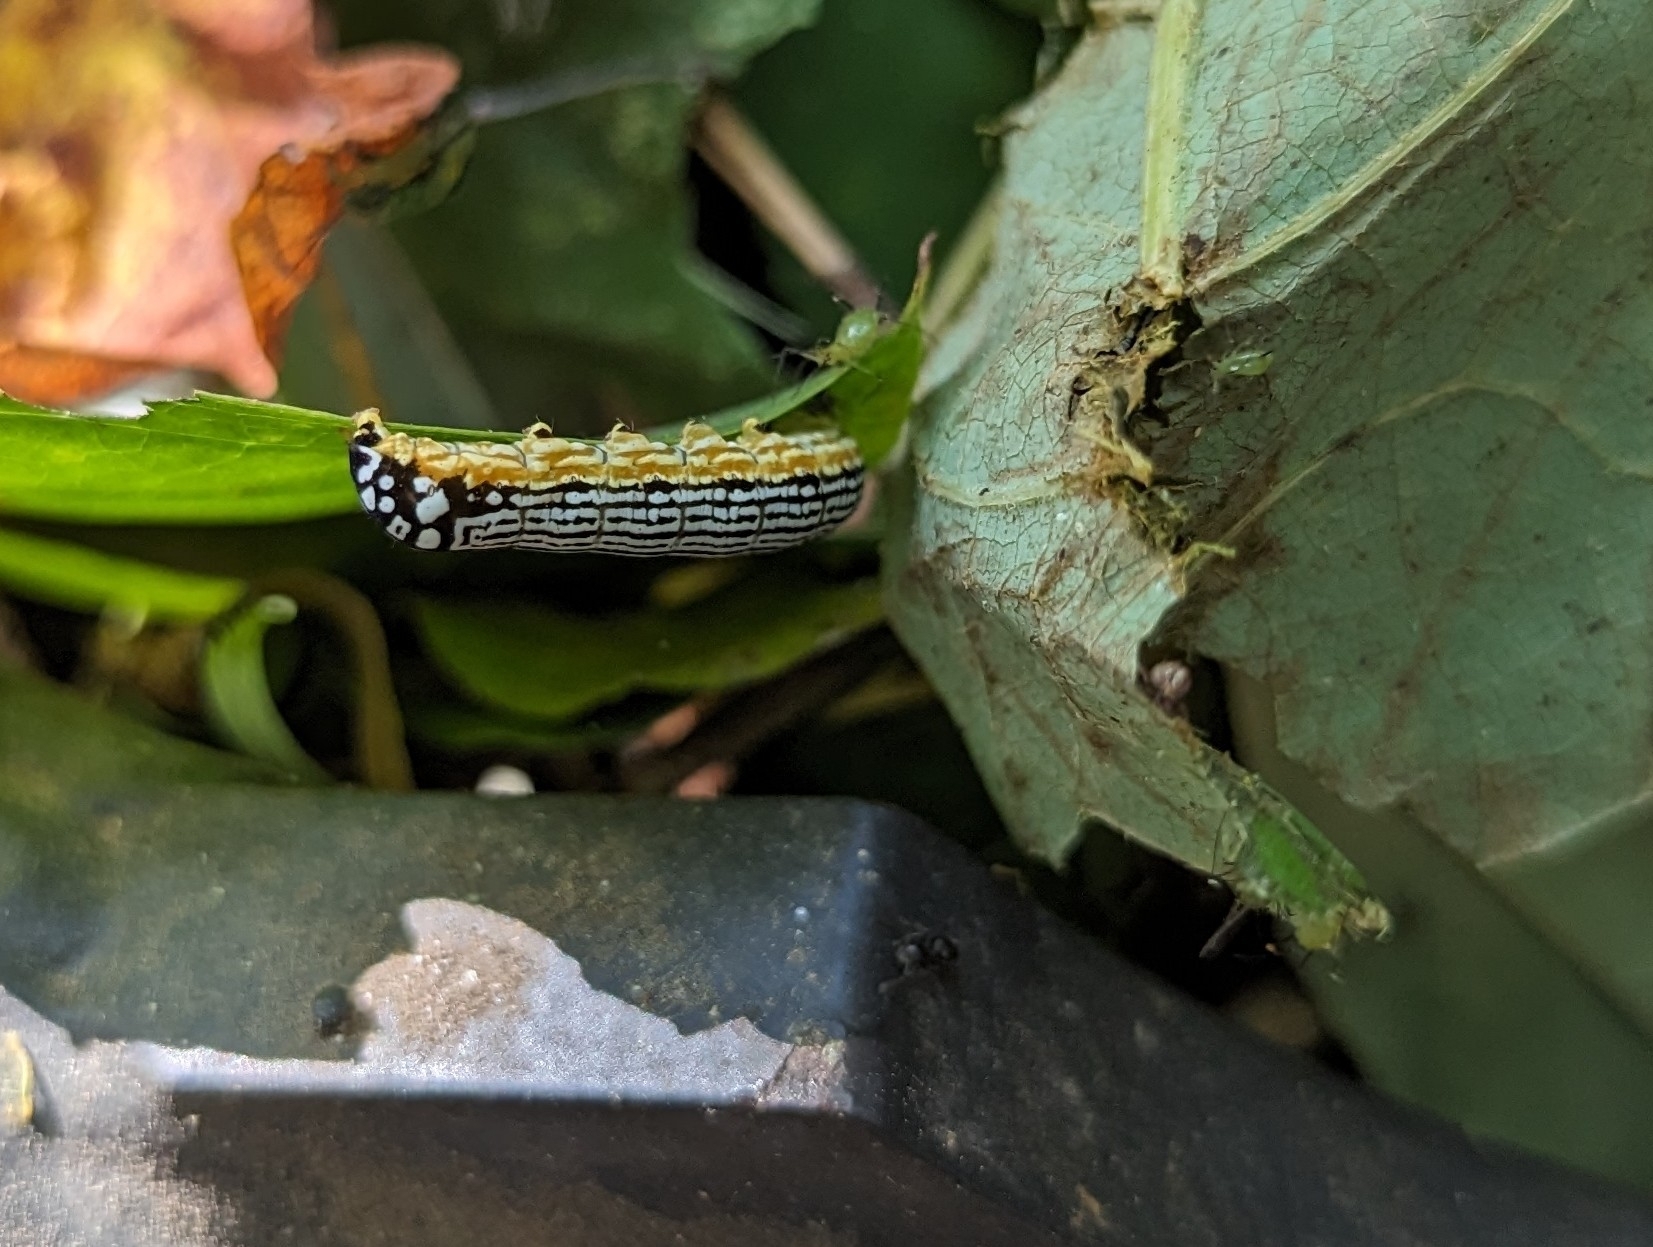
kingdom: Animalia
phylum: Arthropoda
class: Insecta
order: Lepidoptera
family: Noctuidae
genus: Phosphila
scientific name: Phosphila turbulenta
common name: Turbulent phosphila moth
